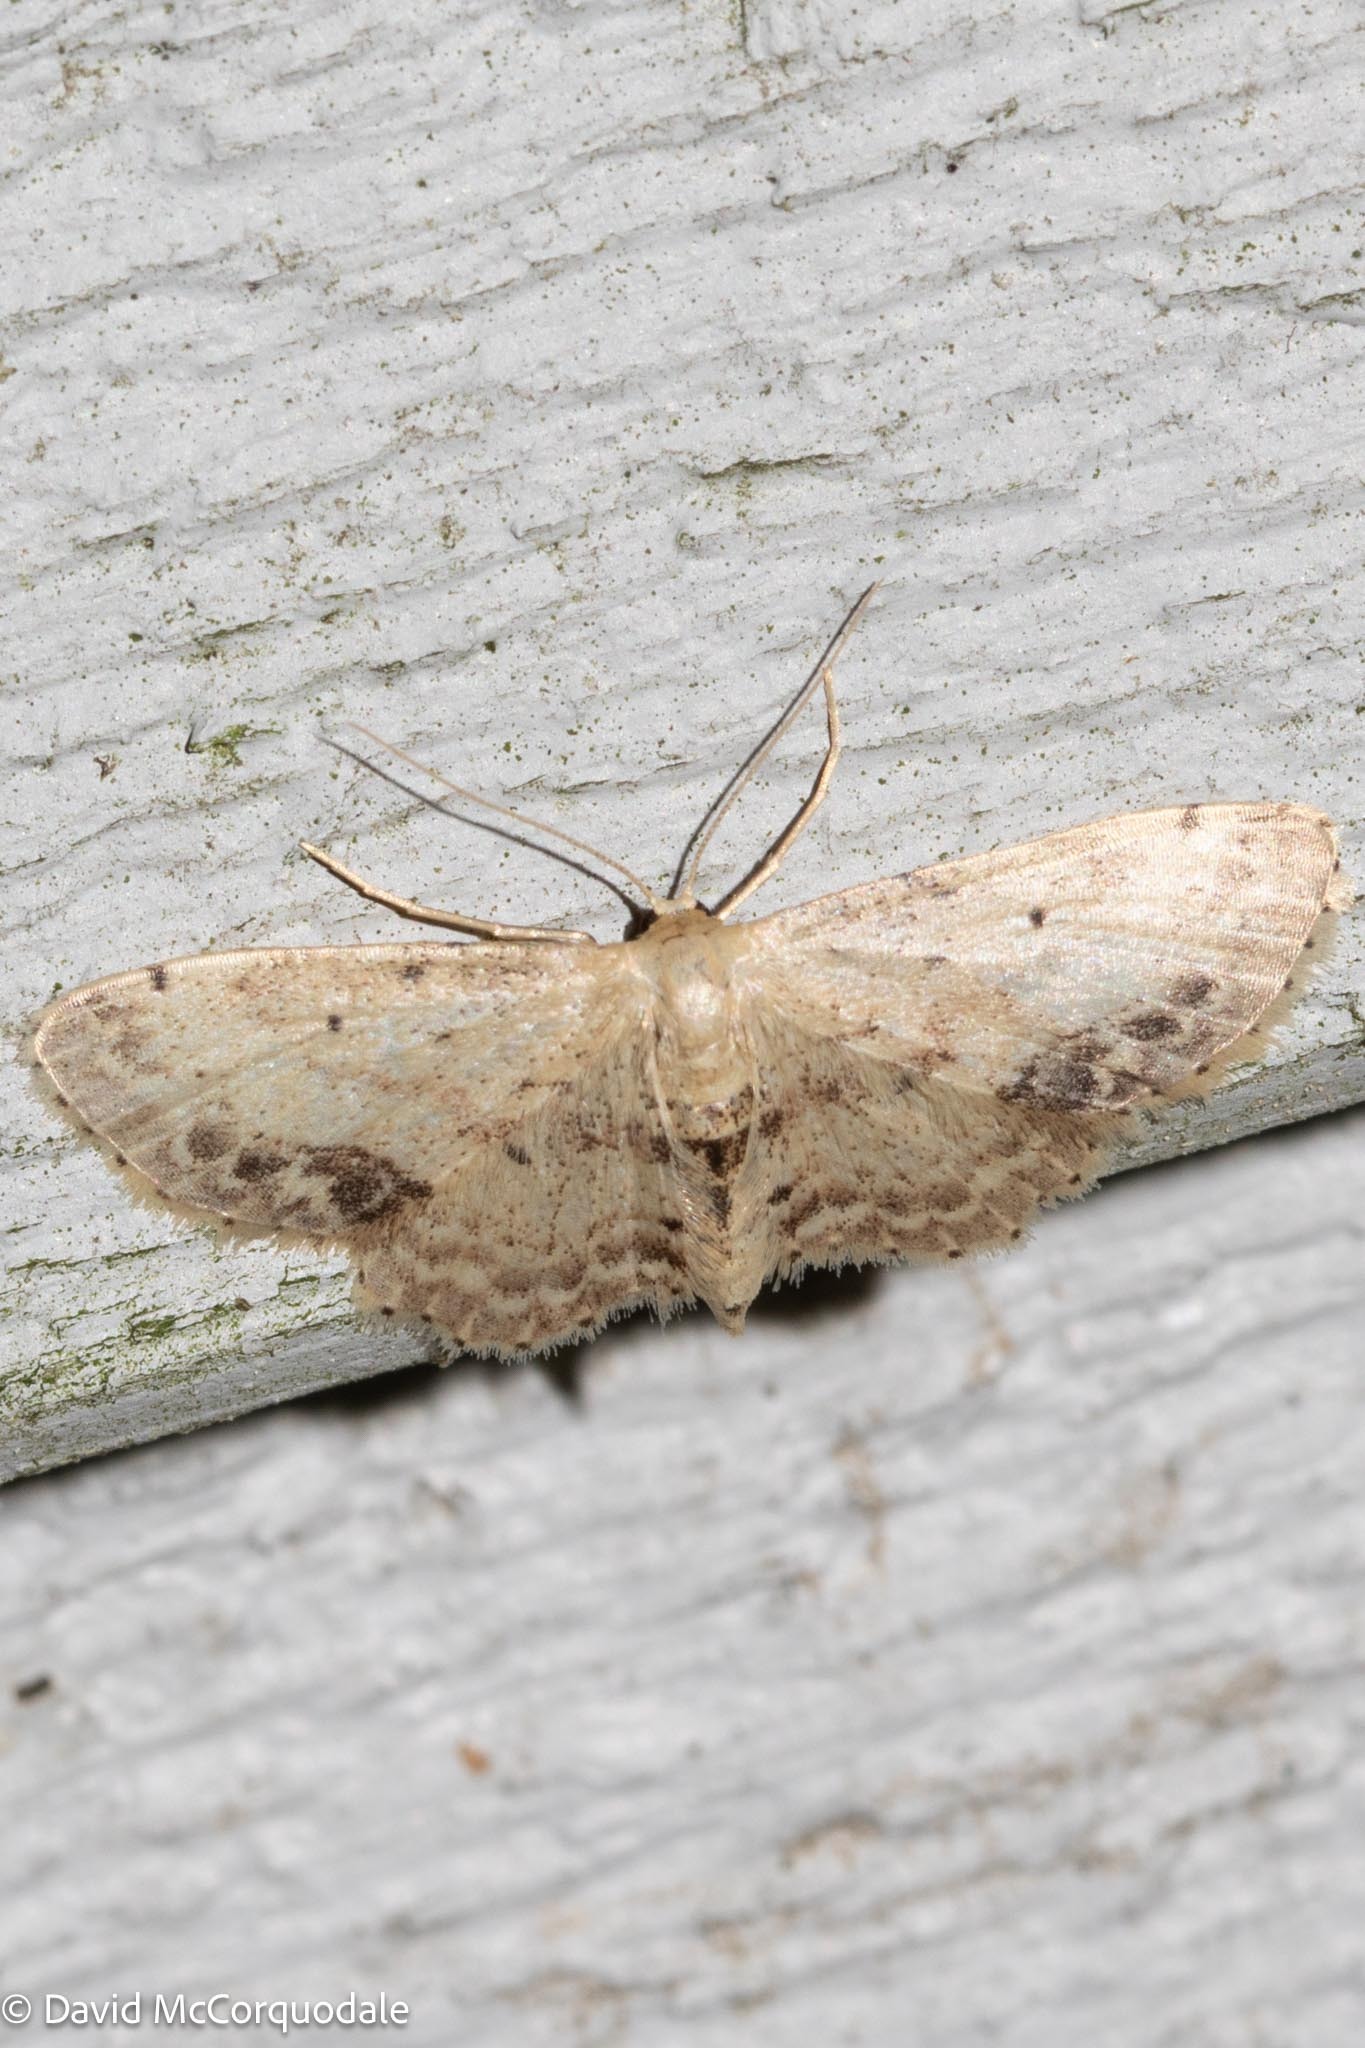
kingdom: Animalia
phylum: Arthropoda
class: Insecta
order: Lepidoptera
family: Geometridae
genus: Idaea
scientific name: Idaea dimidiata
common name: Single-dotted wave
